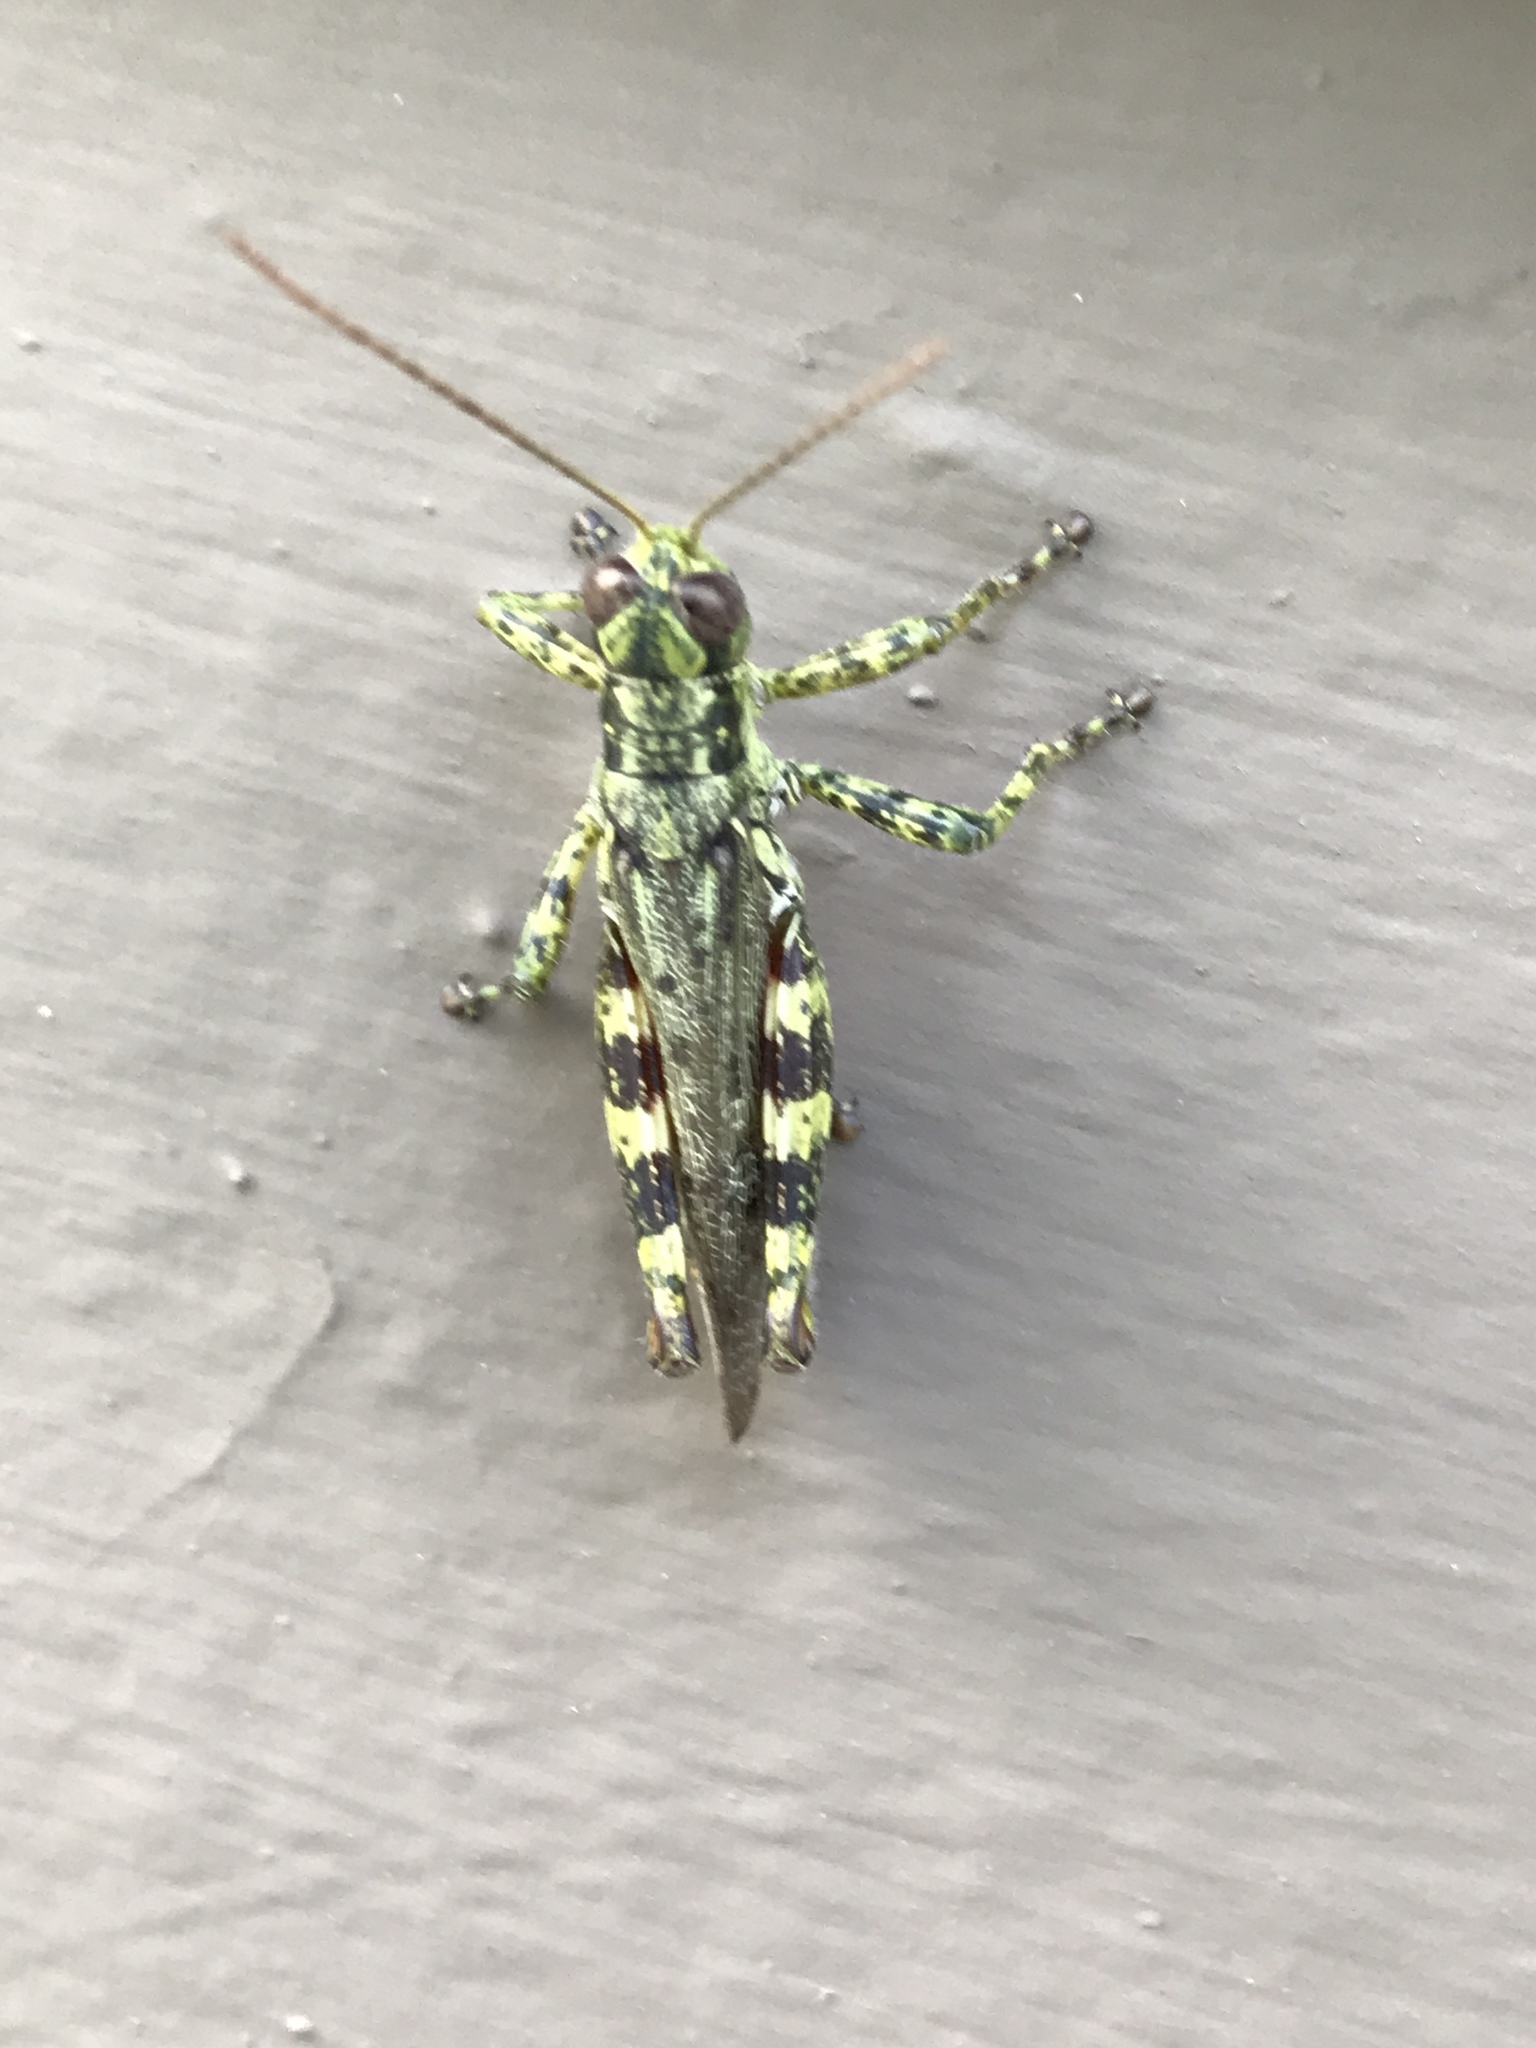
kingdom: Animalia
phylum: Arthropoda
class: Insecta
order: Orthoptera
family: Acrididae
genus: Melanoplus
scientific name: Melanoplus punctulatus
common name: Pine-tree spur-throat grasshopper
